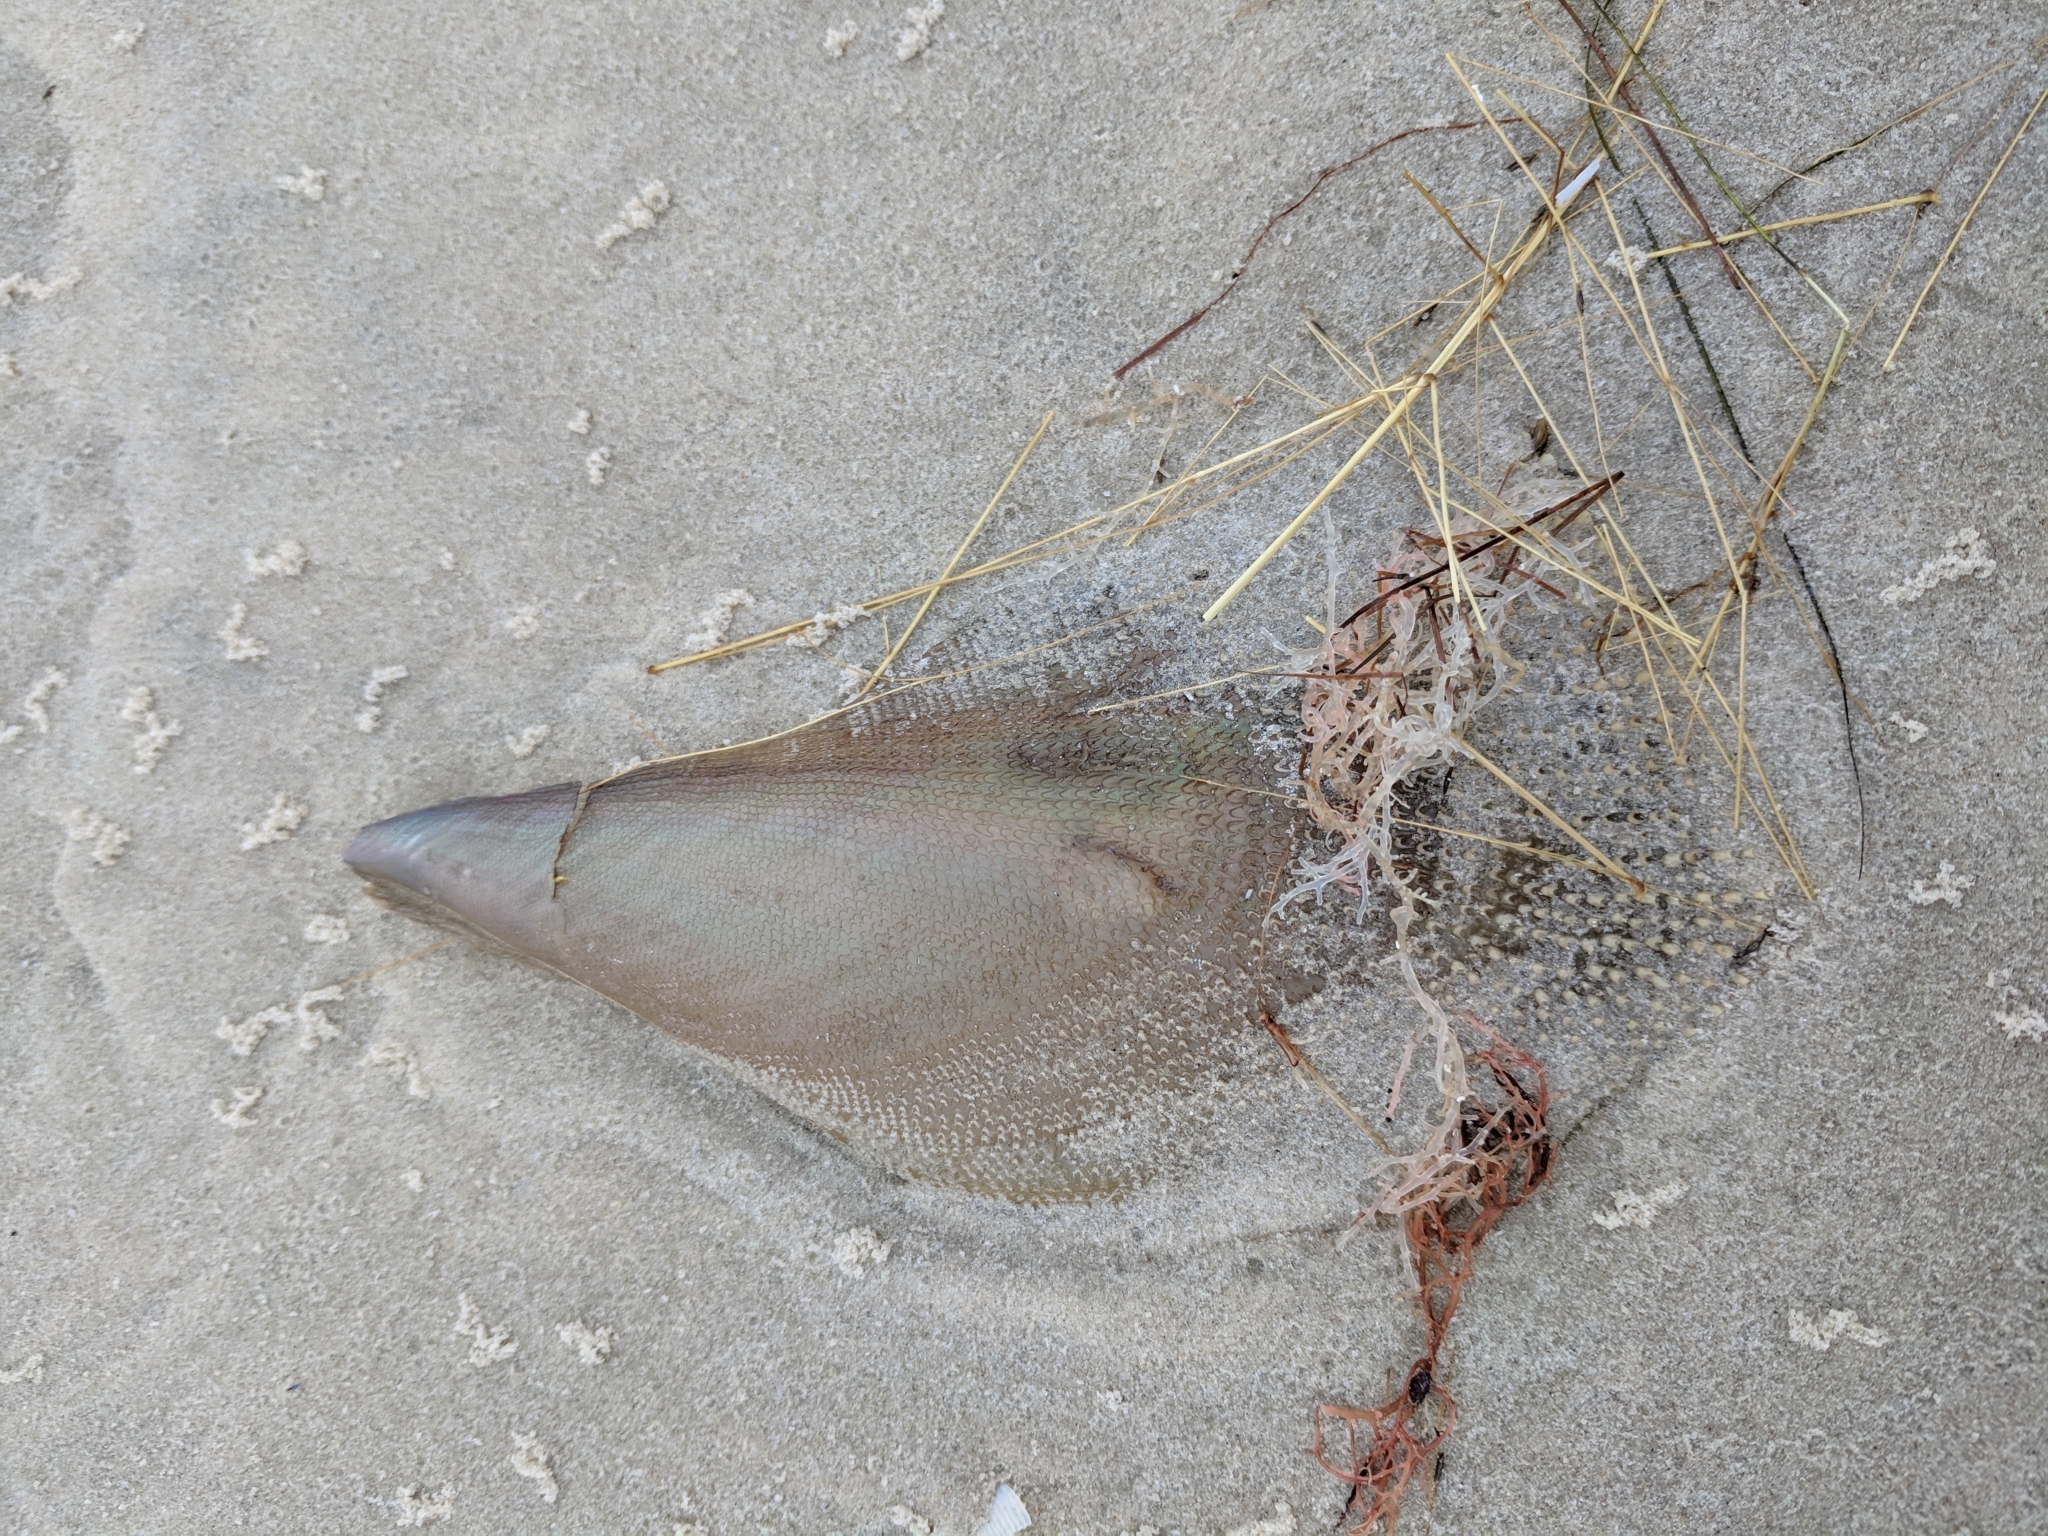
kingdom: Animalia
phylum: Mollusca
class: Bivalvia
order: Ostreida
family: Pinnidae
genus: Atrina
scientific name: Atrina serrata
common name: Saw-toothed penshell
